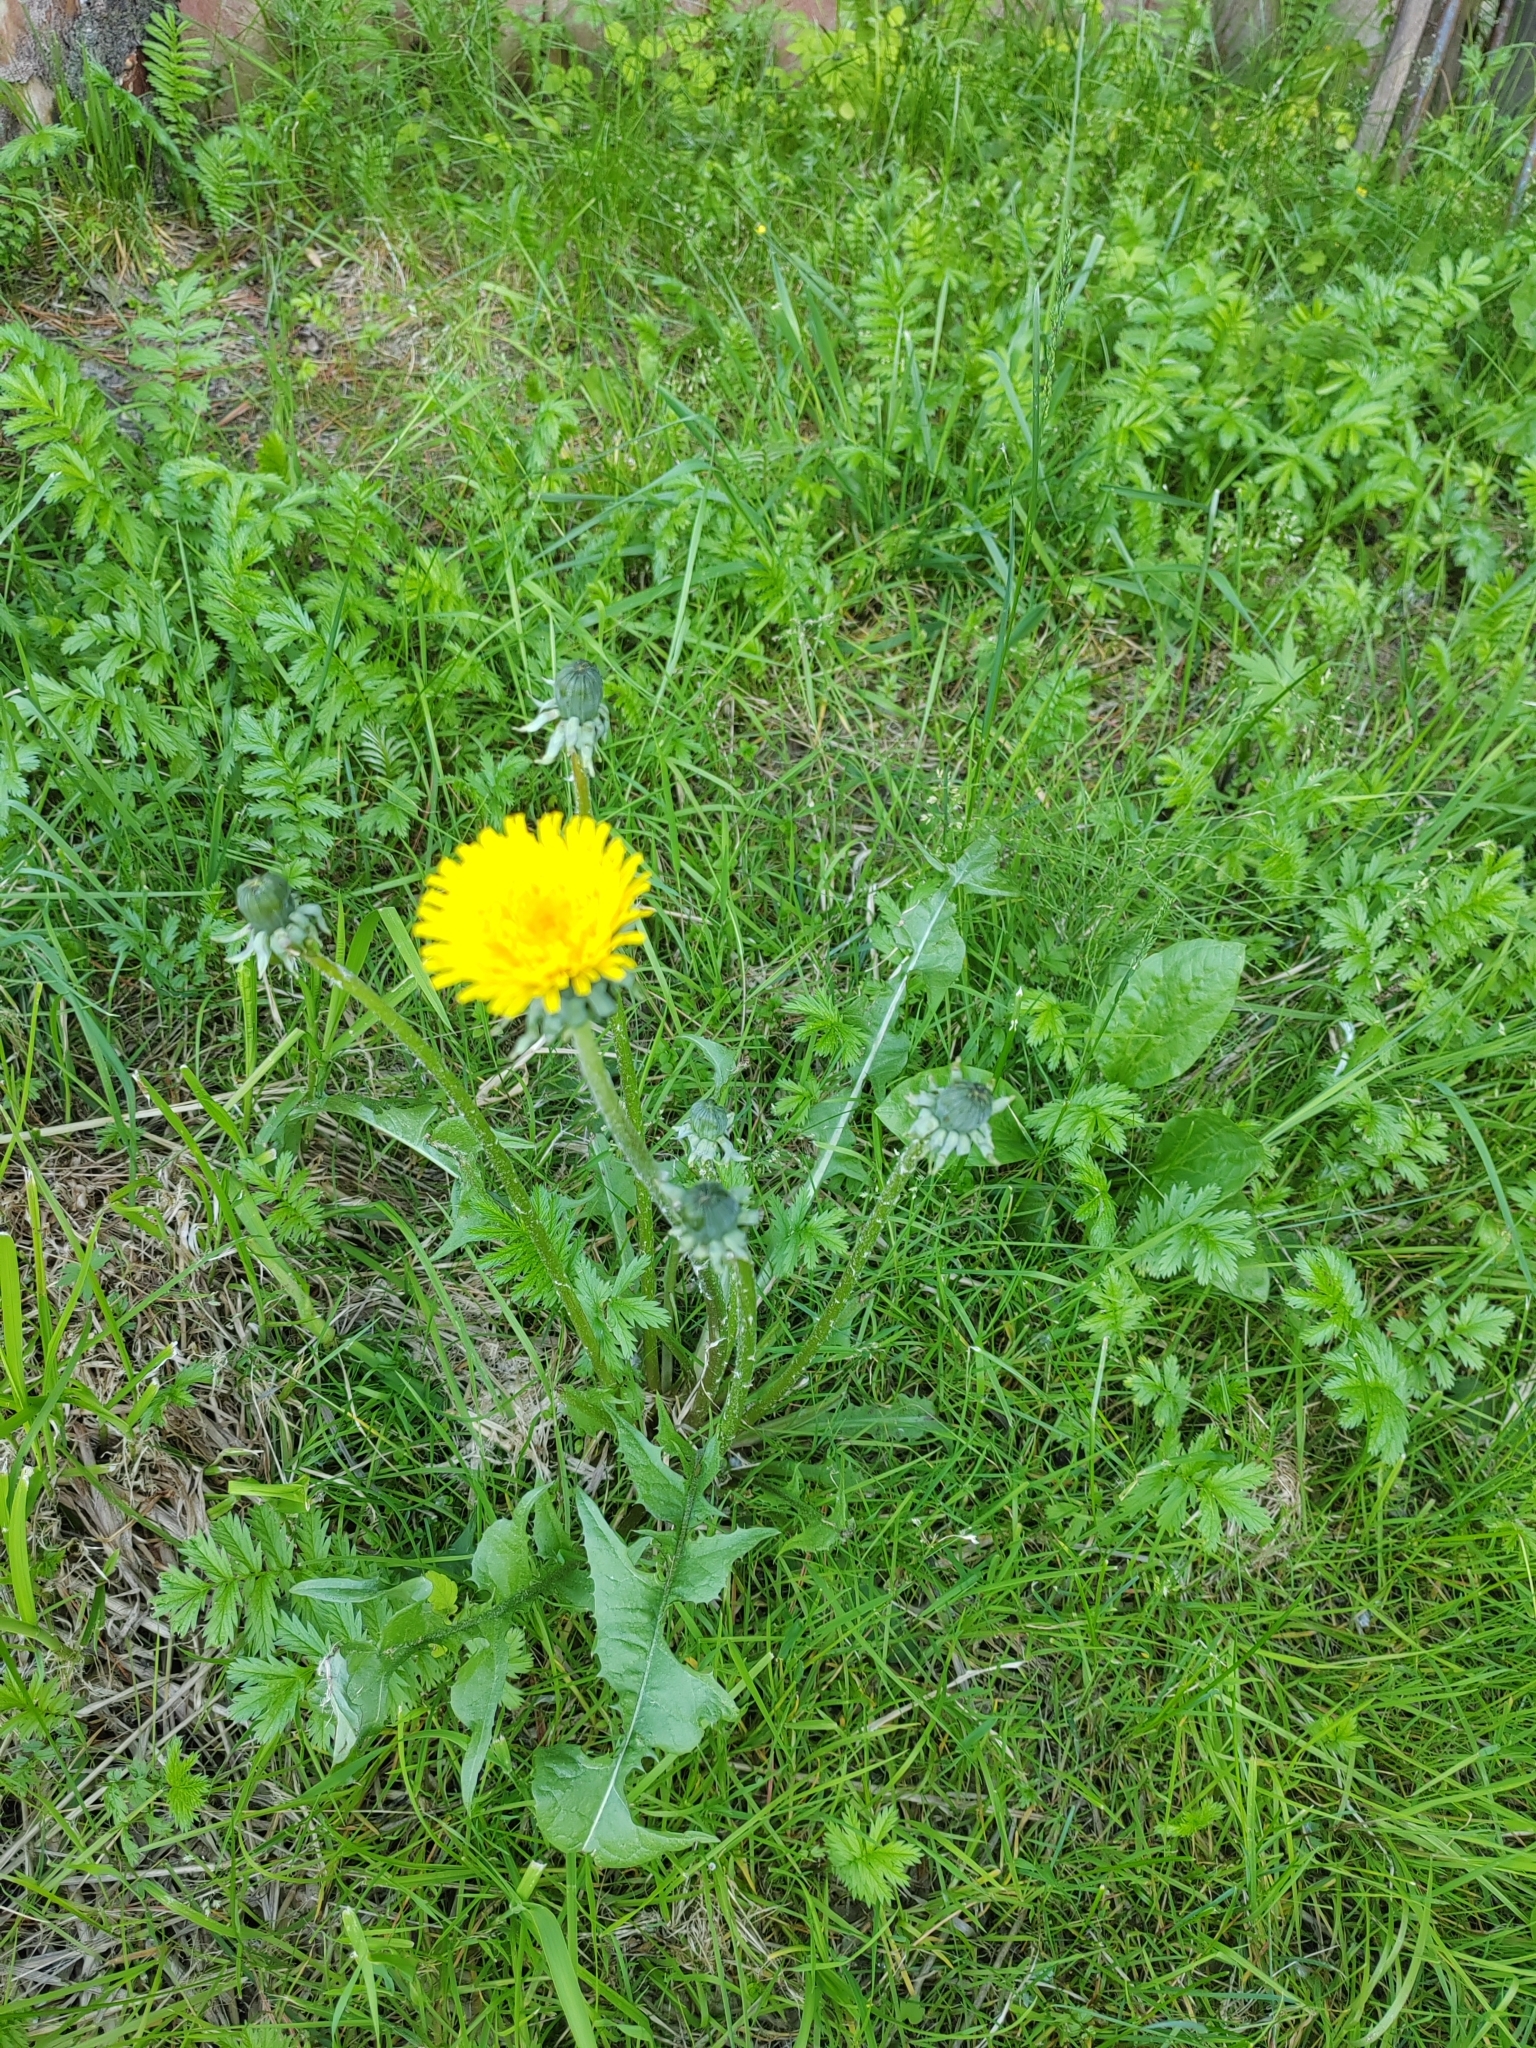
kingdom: Plantae
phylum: Tracheophyta
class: Magnoliopsida
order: Asterales
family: Asteraceae
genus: Taraxacum
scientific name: Taraxacum officinale
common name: Common dandelion
